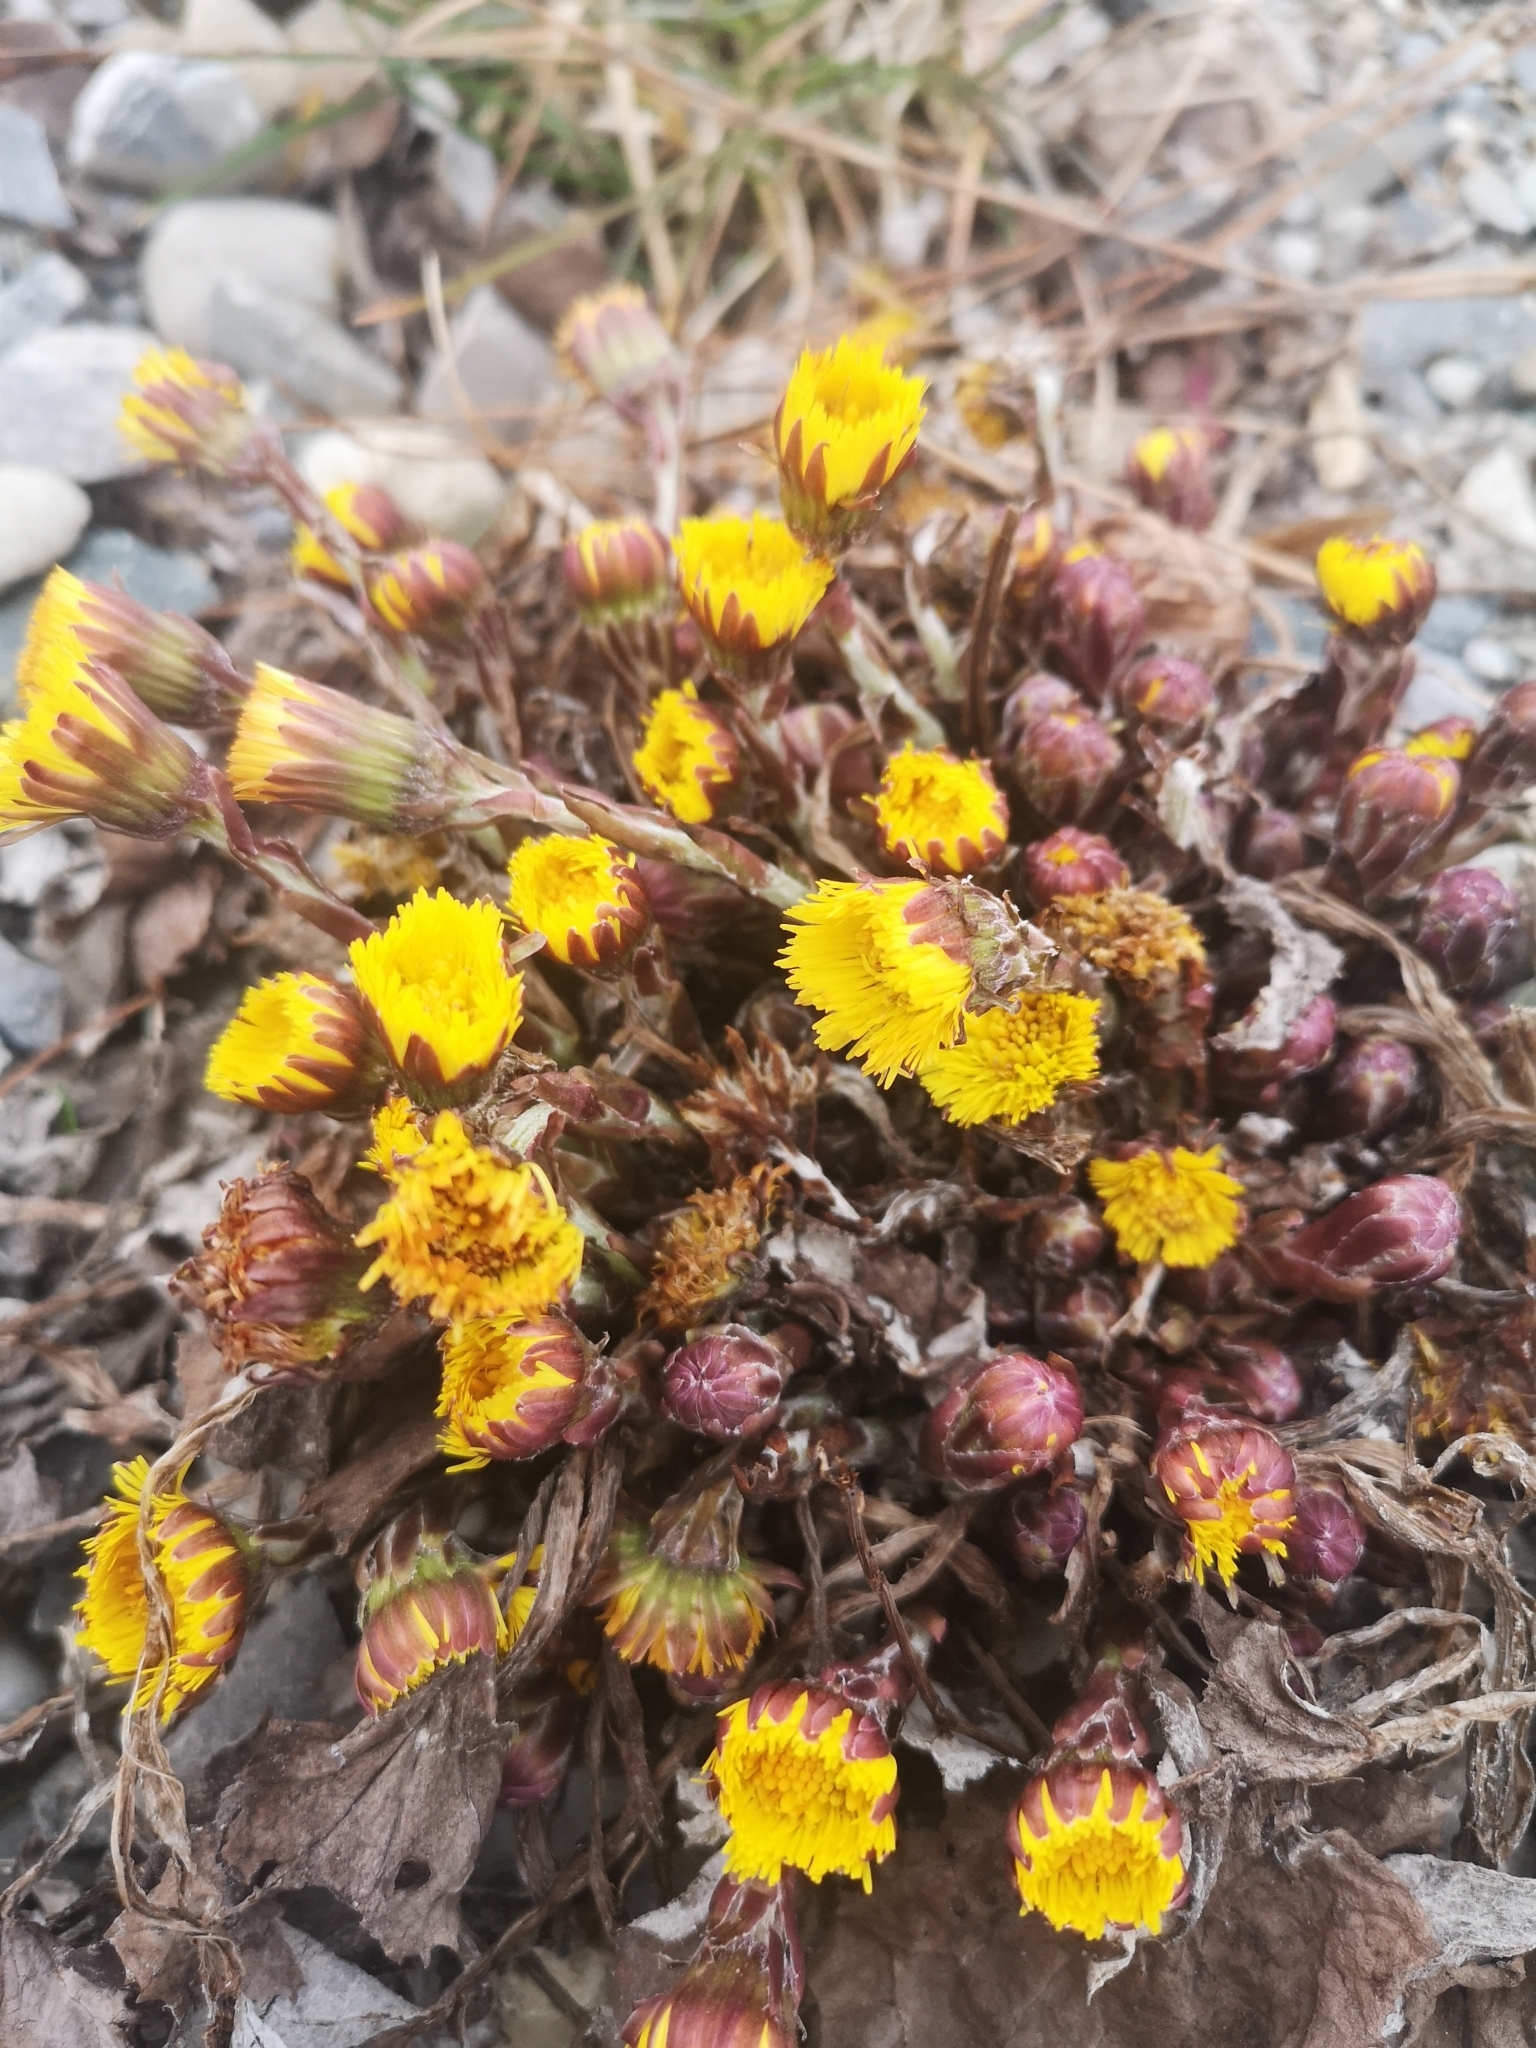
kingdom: Plantae
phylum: Tracheophyta
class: Magnoliopsida
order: Asterales
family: Asteraceae
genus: Tussilago
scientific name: Tussilago farfara
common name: Coltsfoot
